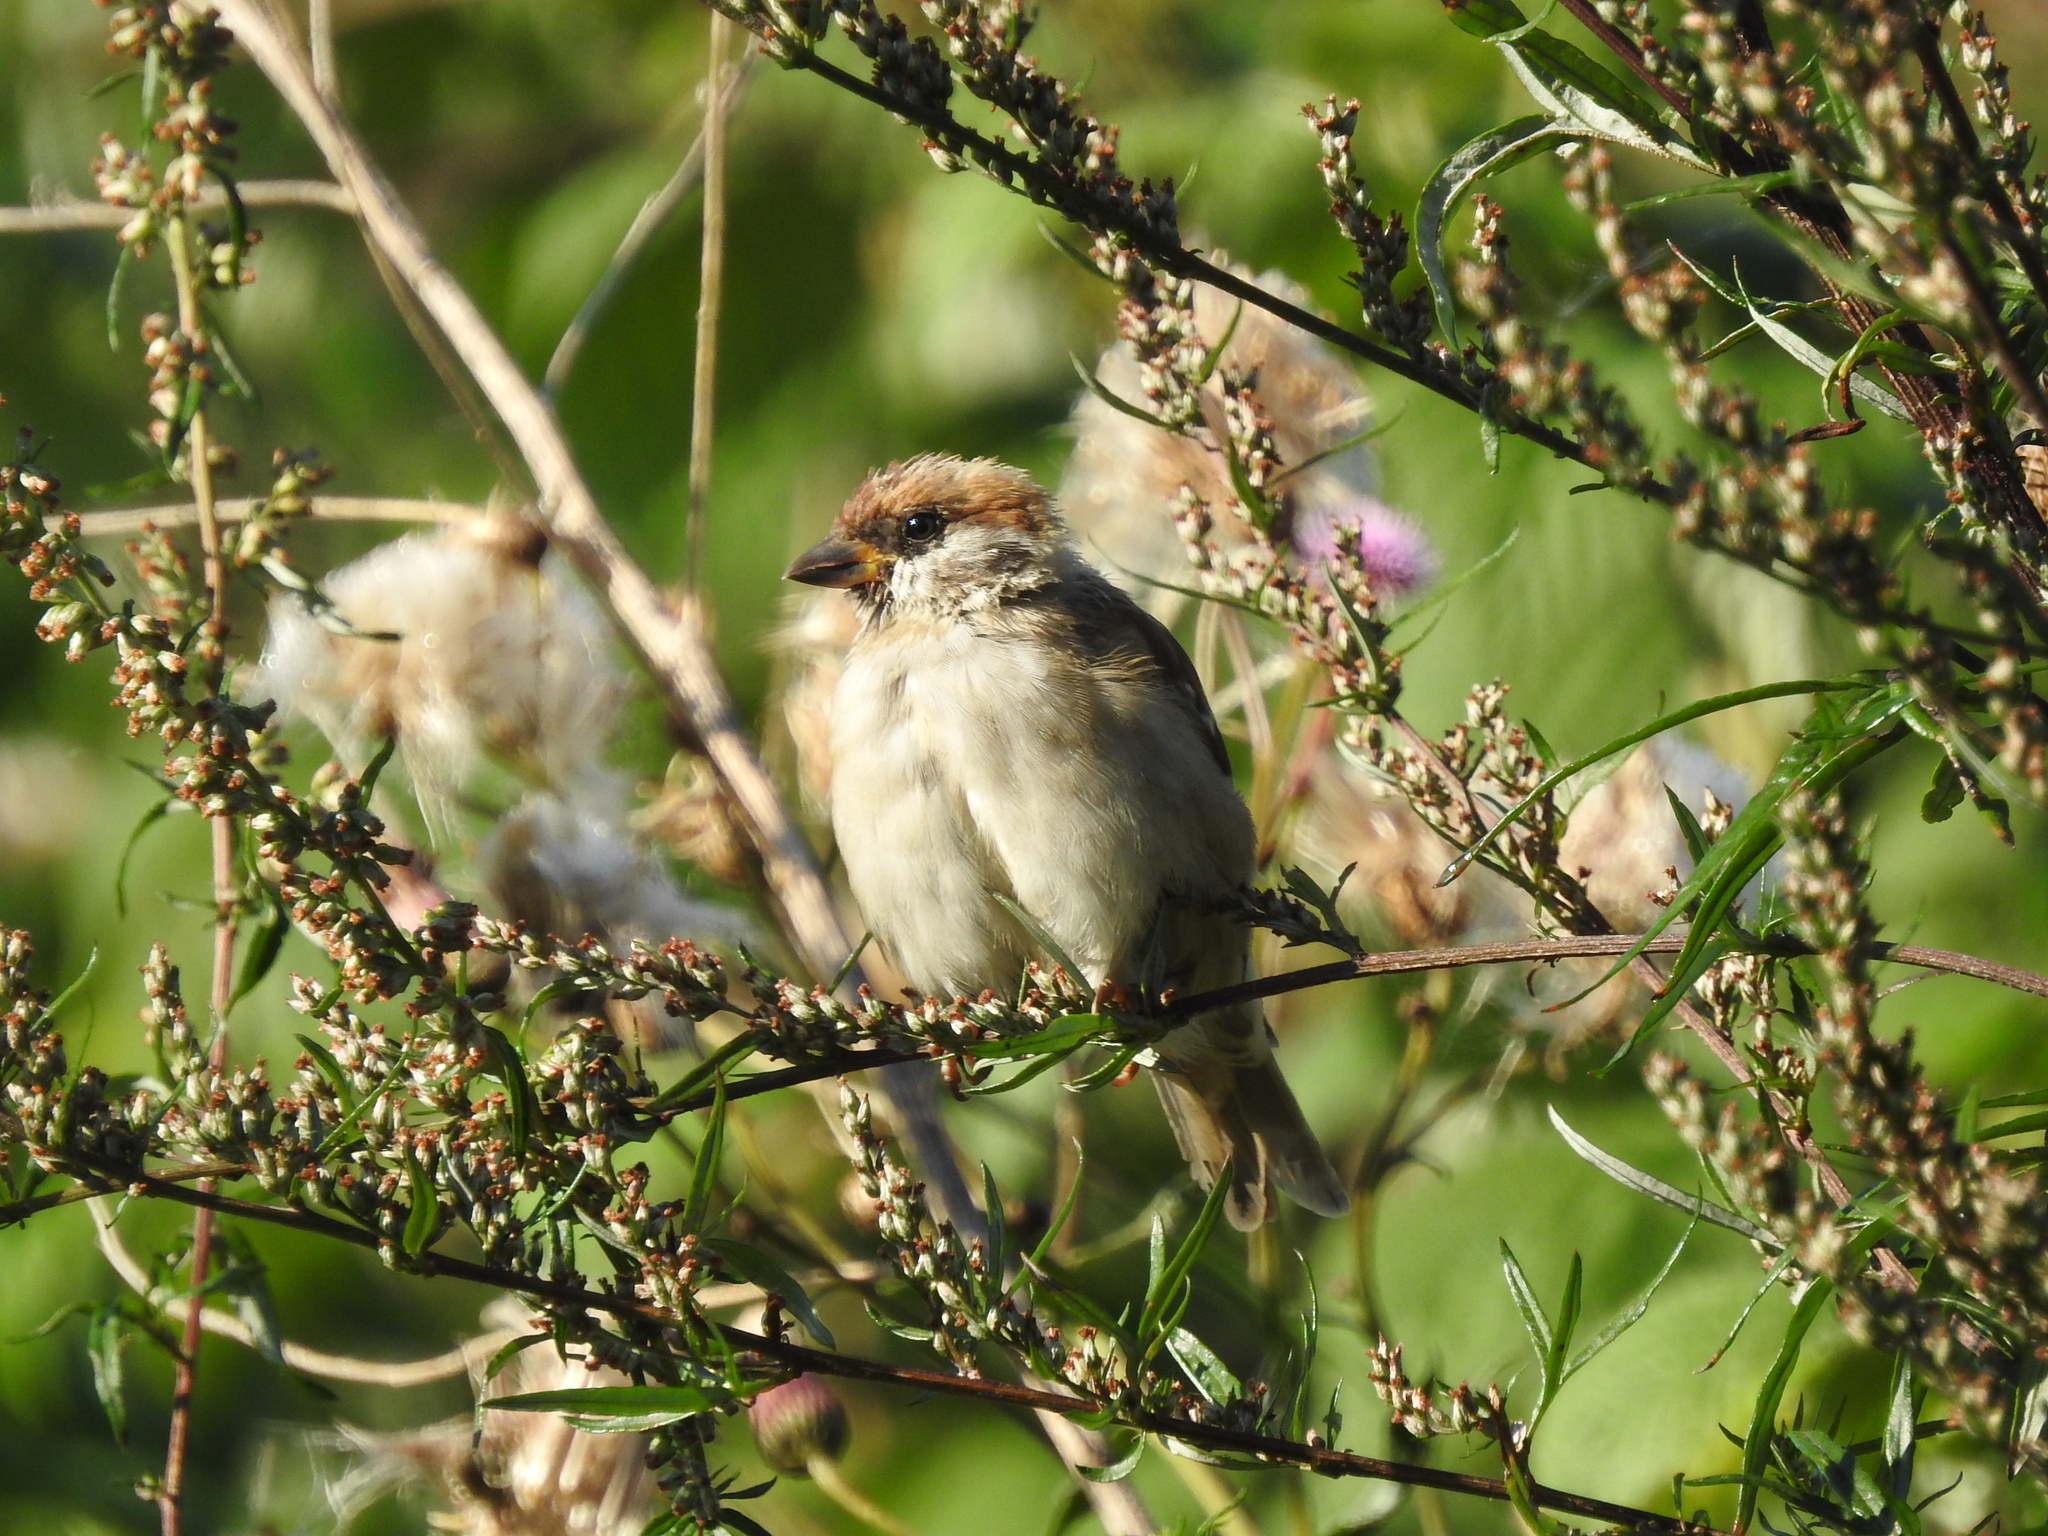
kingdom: Animalia
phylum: Chordata
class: Aves
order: Passeriformes
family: Passeridae
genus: Passer
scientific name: Passer montanus
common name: Eurasian tree sparrow
